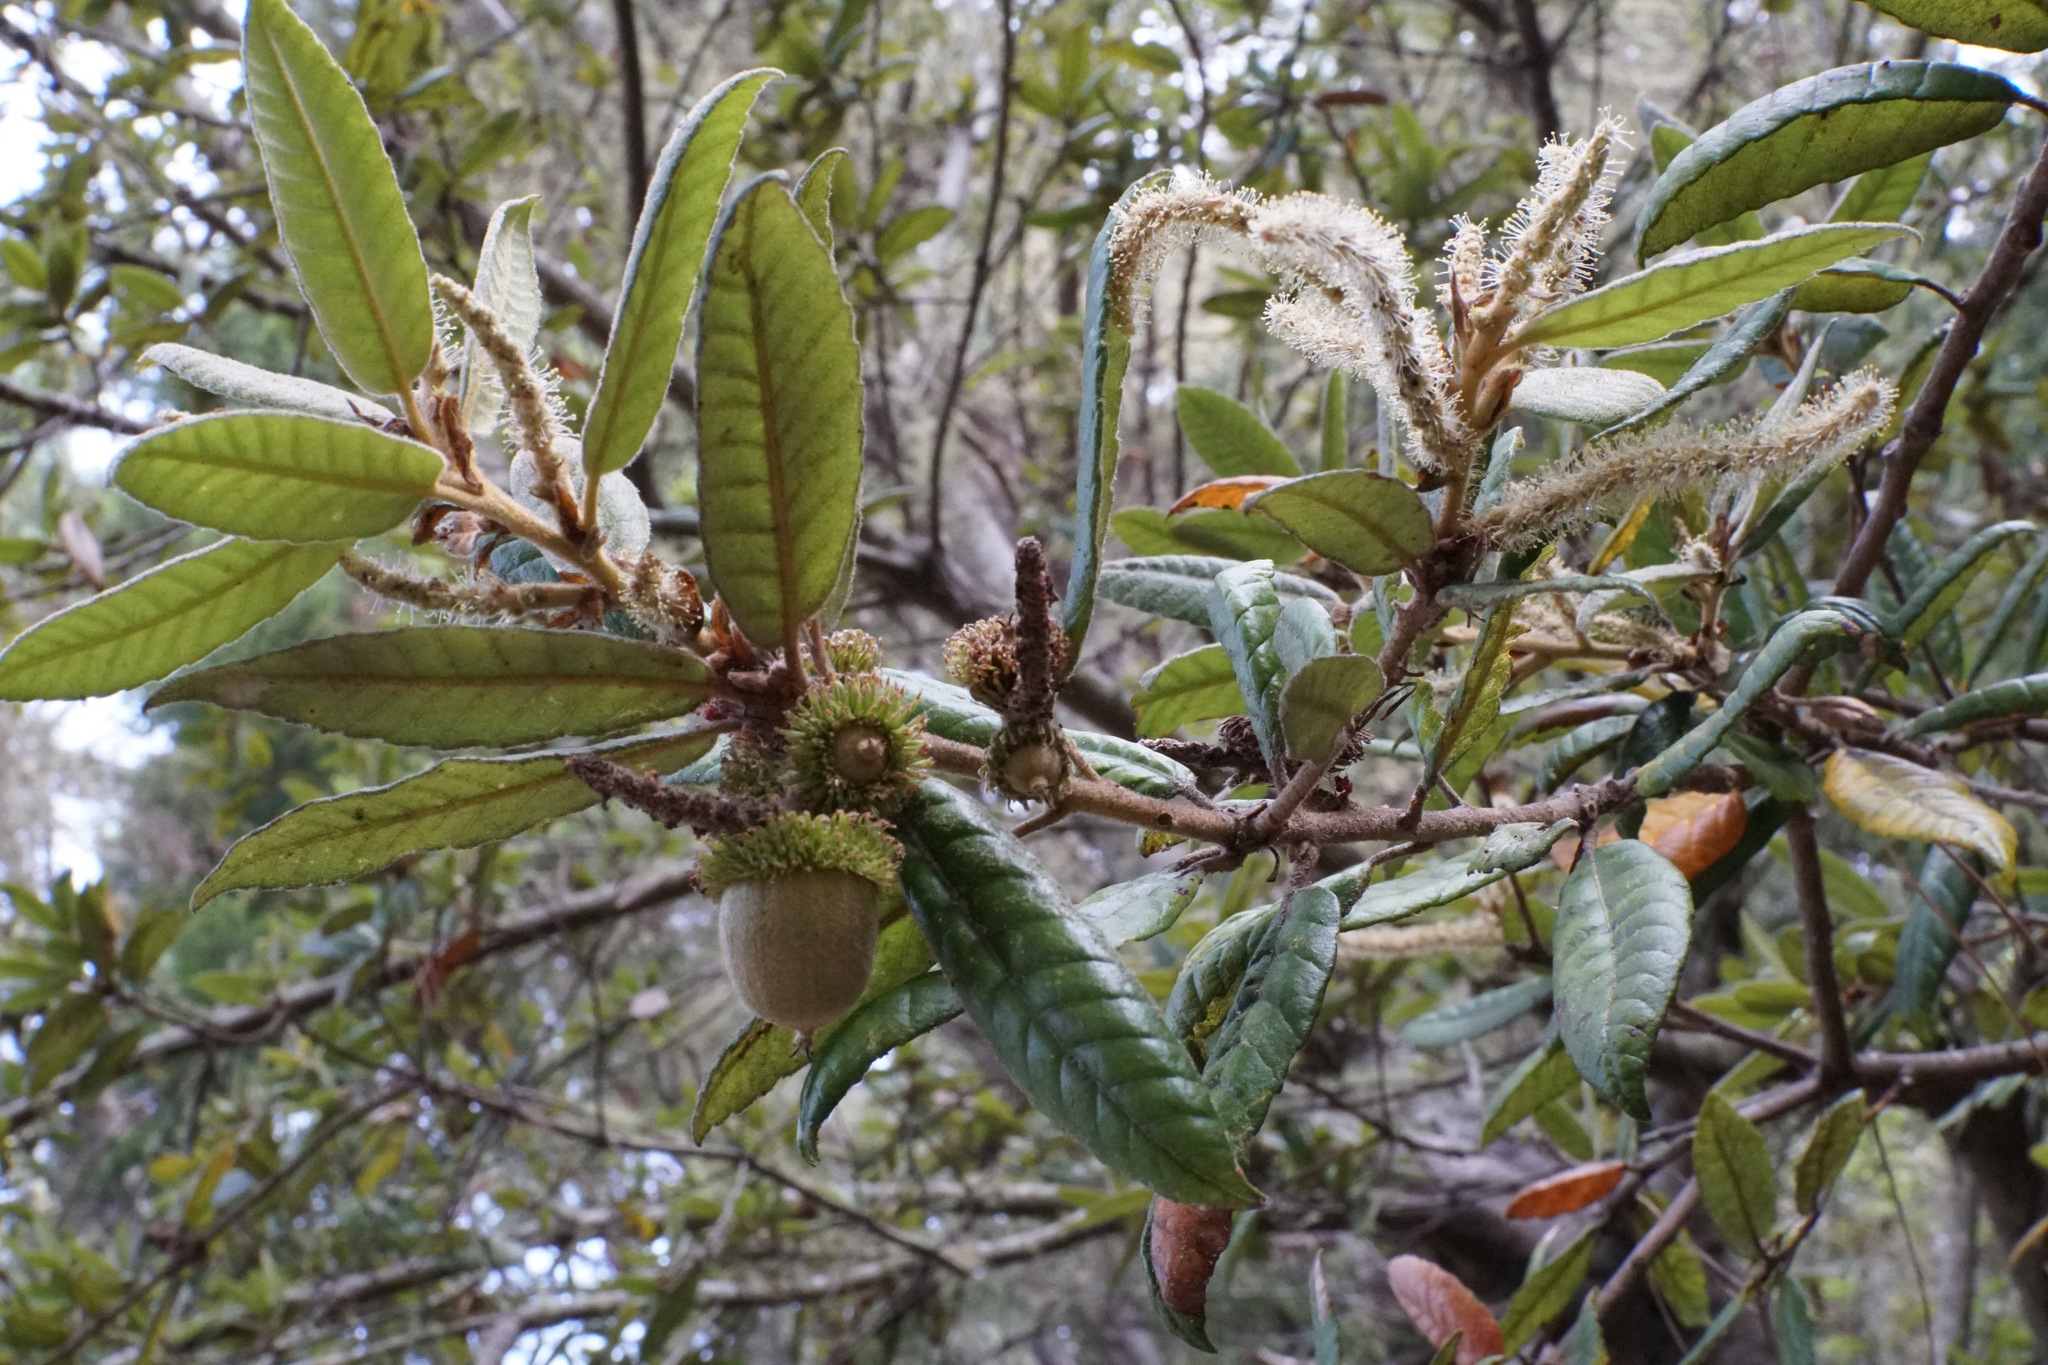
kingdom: Plantae
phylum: Tracheophyta
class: Magnoliopsida
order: Fagales
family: Fagaceae
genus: Notholithocarpus
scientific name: Notholithocarpus densiflorus
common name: Tan bark oak
